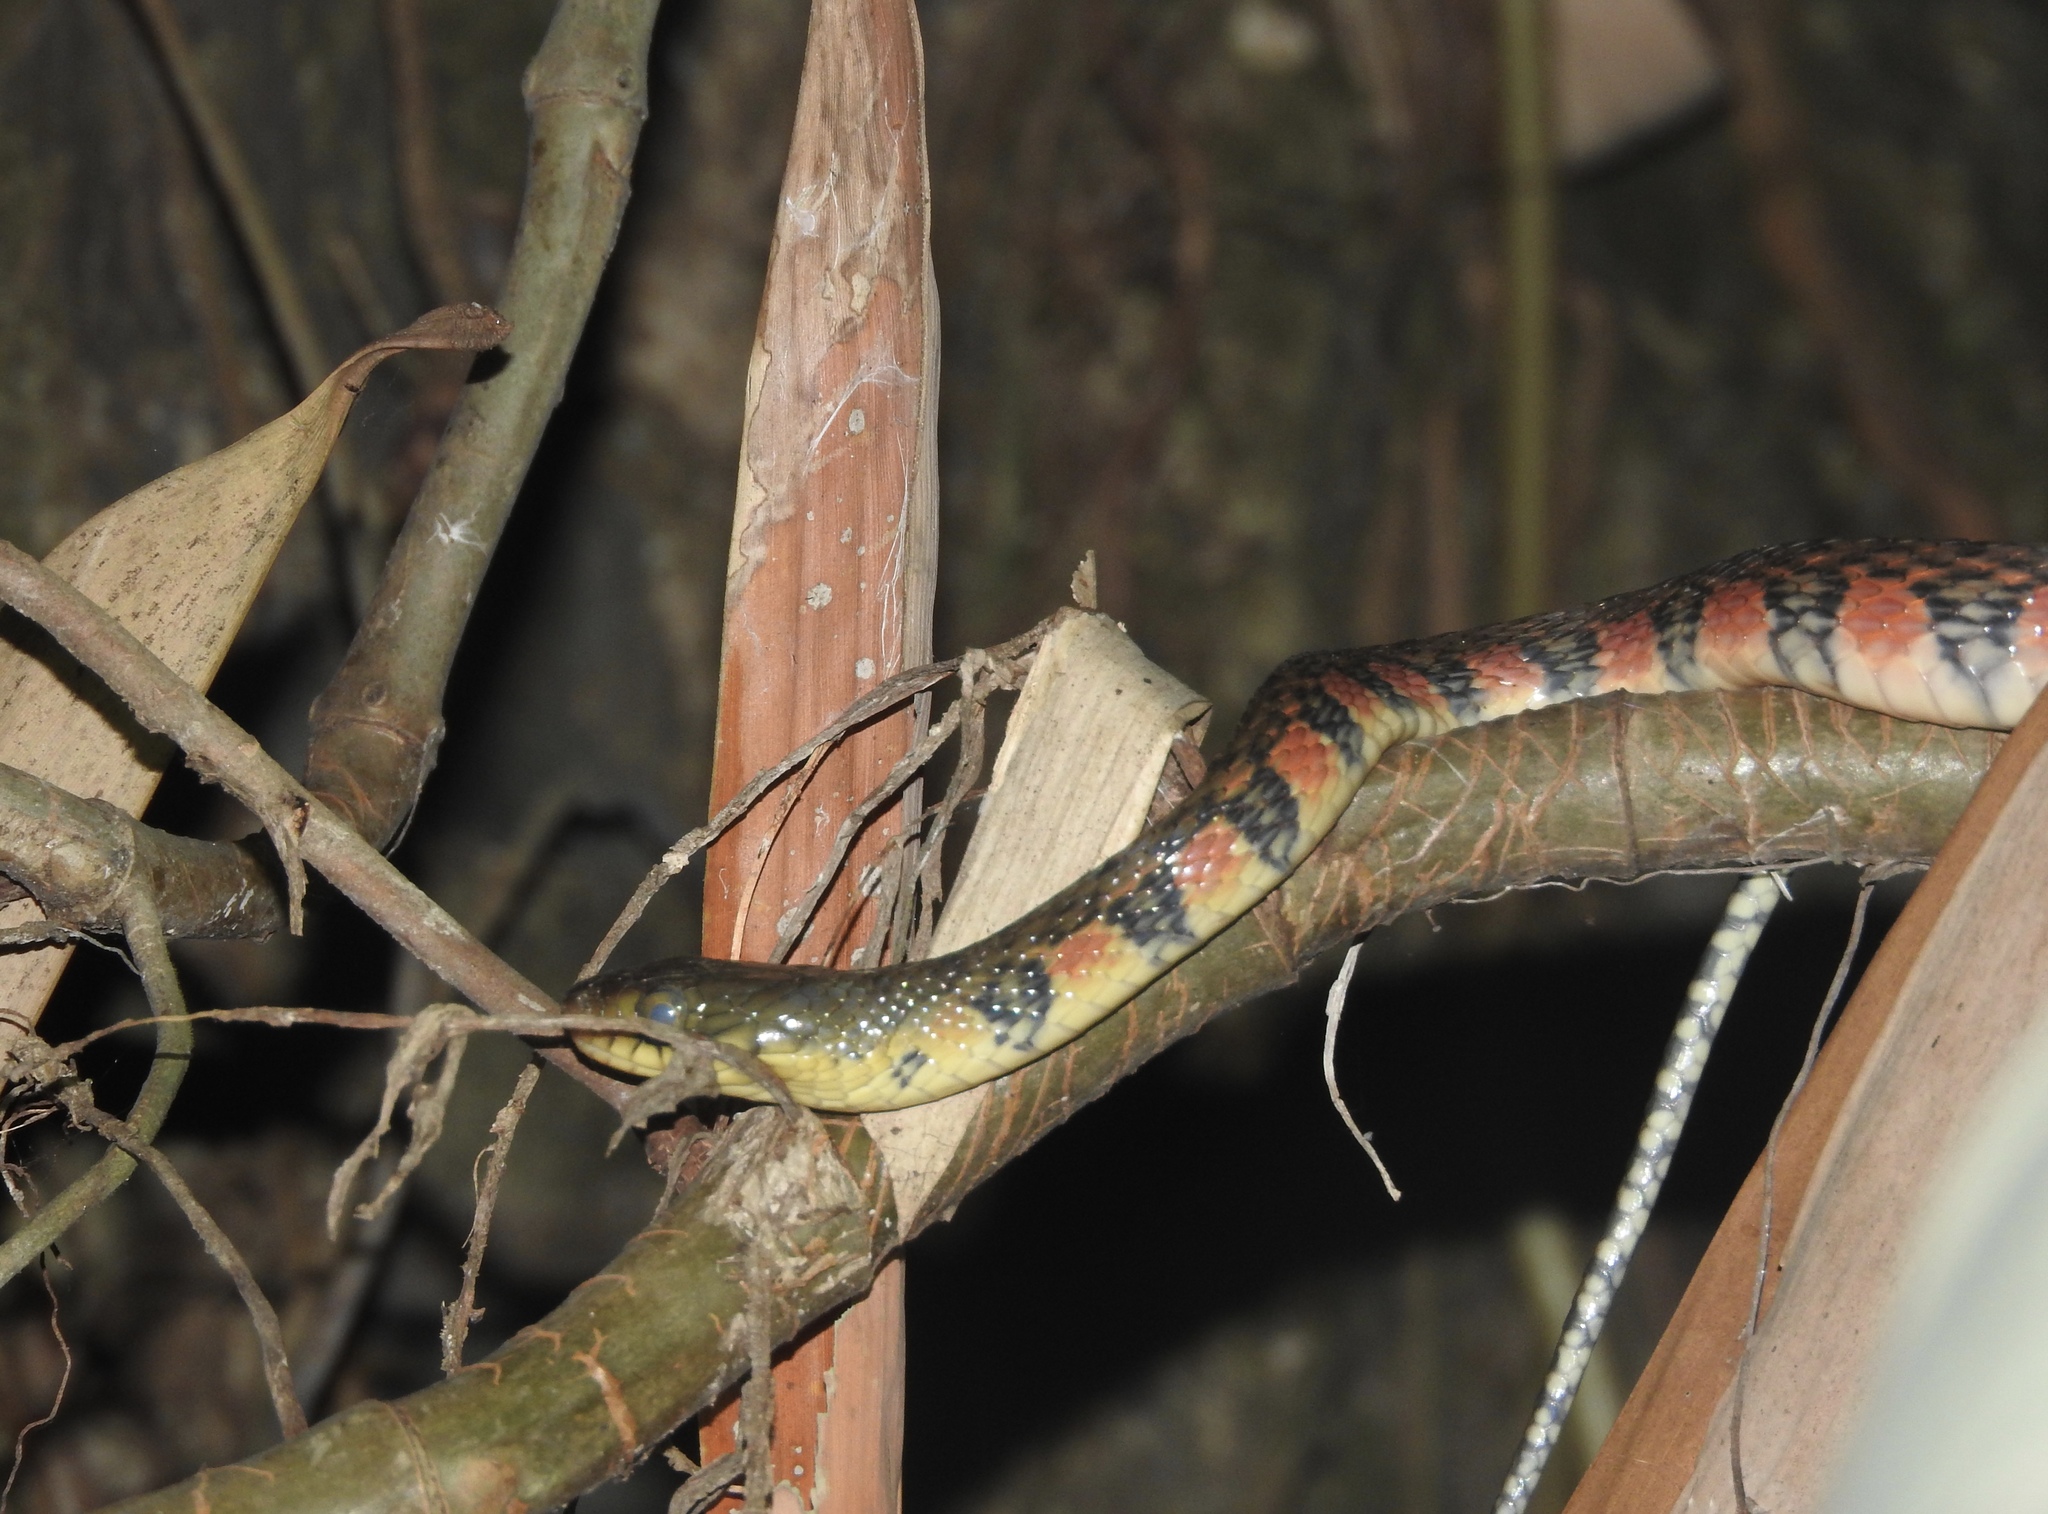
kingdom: Animalia
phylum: Chordata
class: Squamata
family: Colubridae
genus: Xenochrophis
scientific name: Xenochrophis trianguligerus
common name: Triangle keelback
